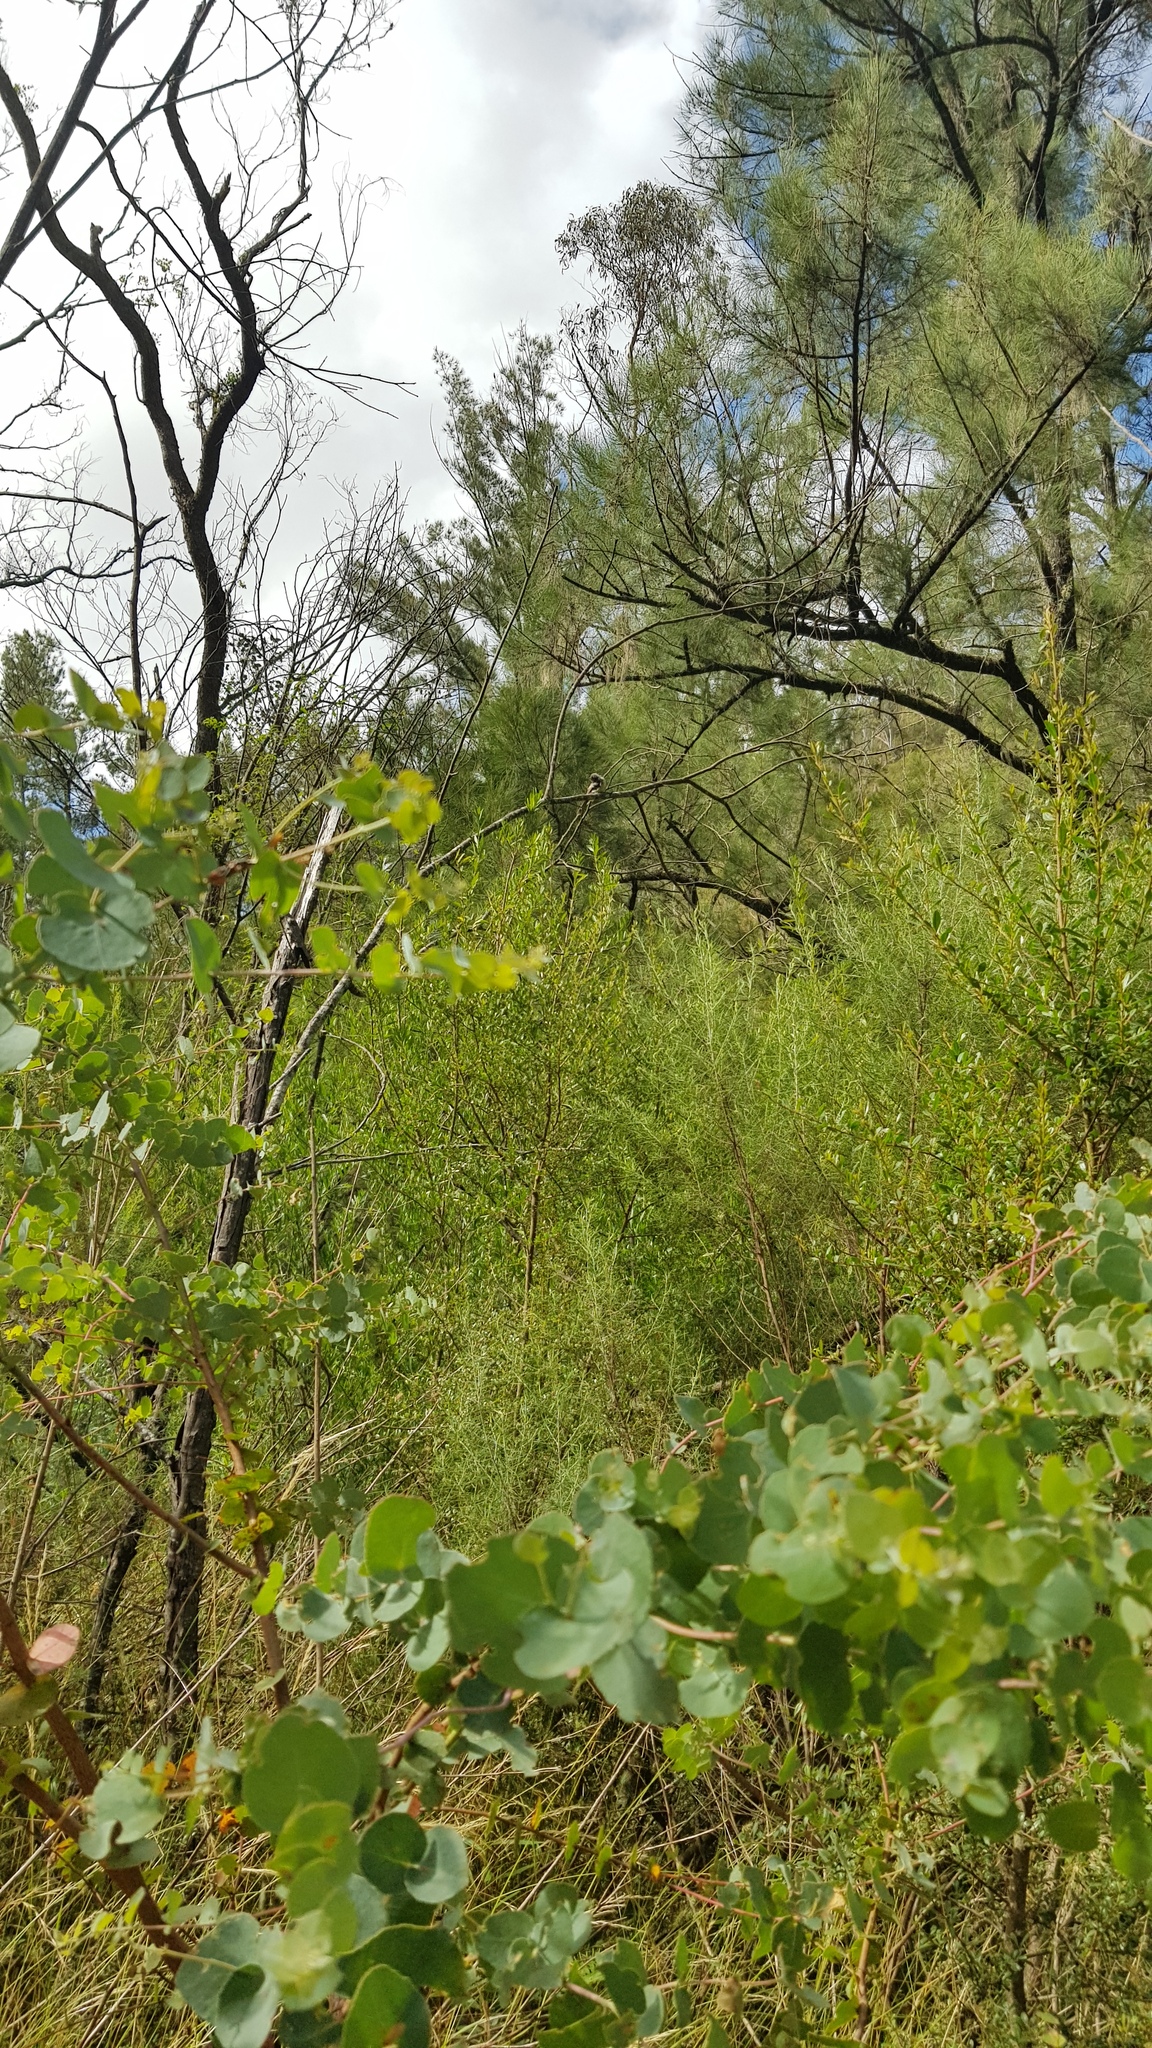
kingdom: Animalia
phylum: Chordata
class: Aves
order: Passeriformes
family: Rhipiduridae
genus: Rhipidura
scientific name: Rhipidura albiscapa
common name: Grey fantail
